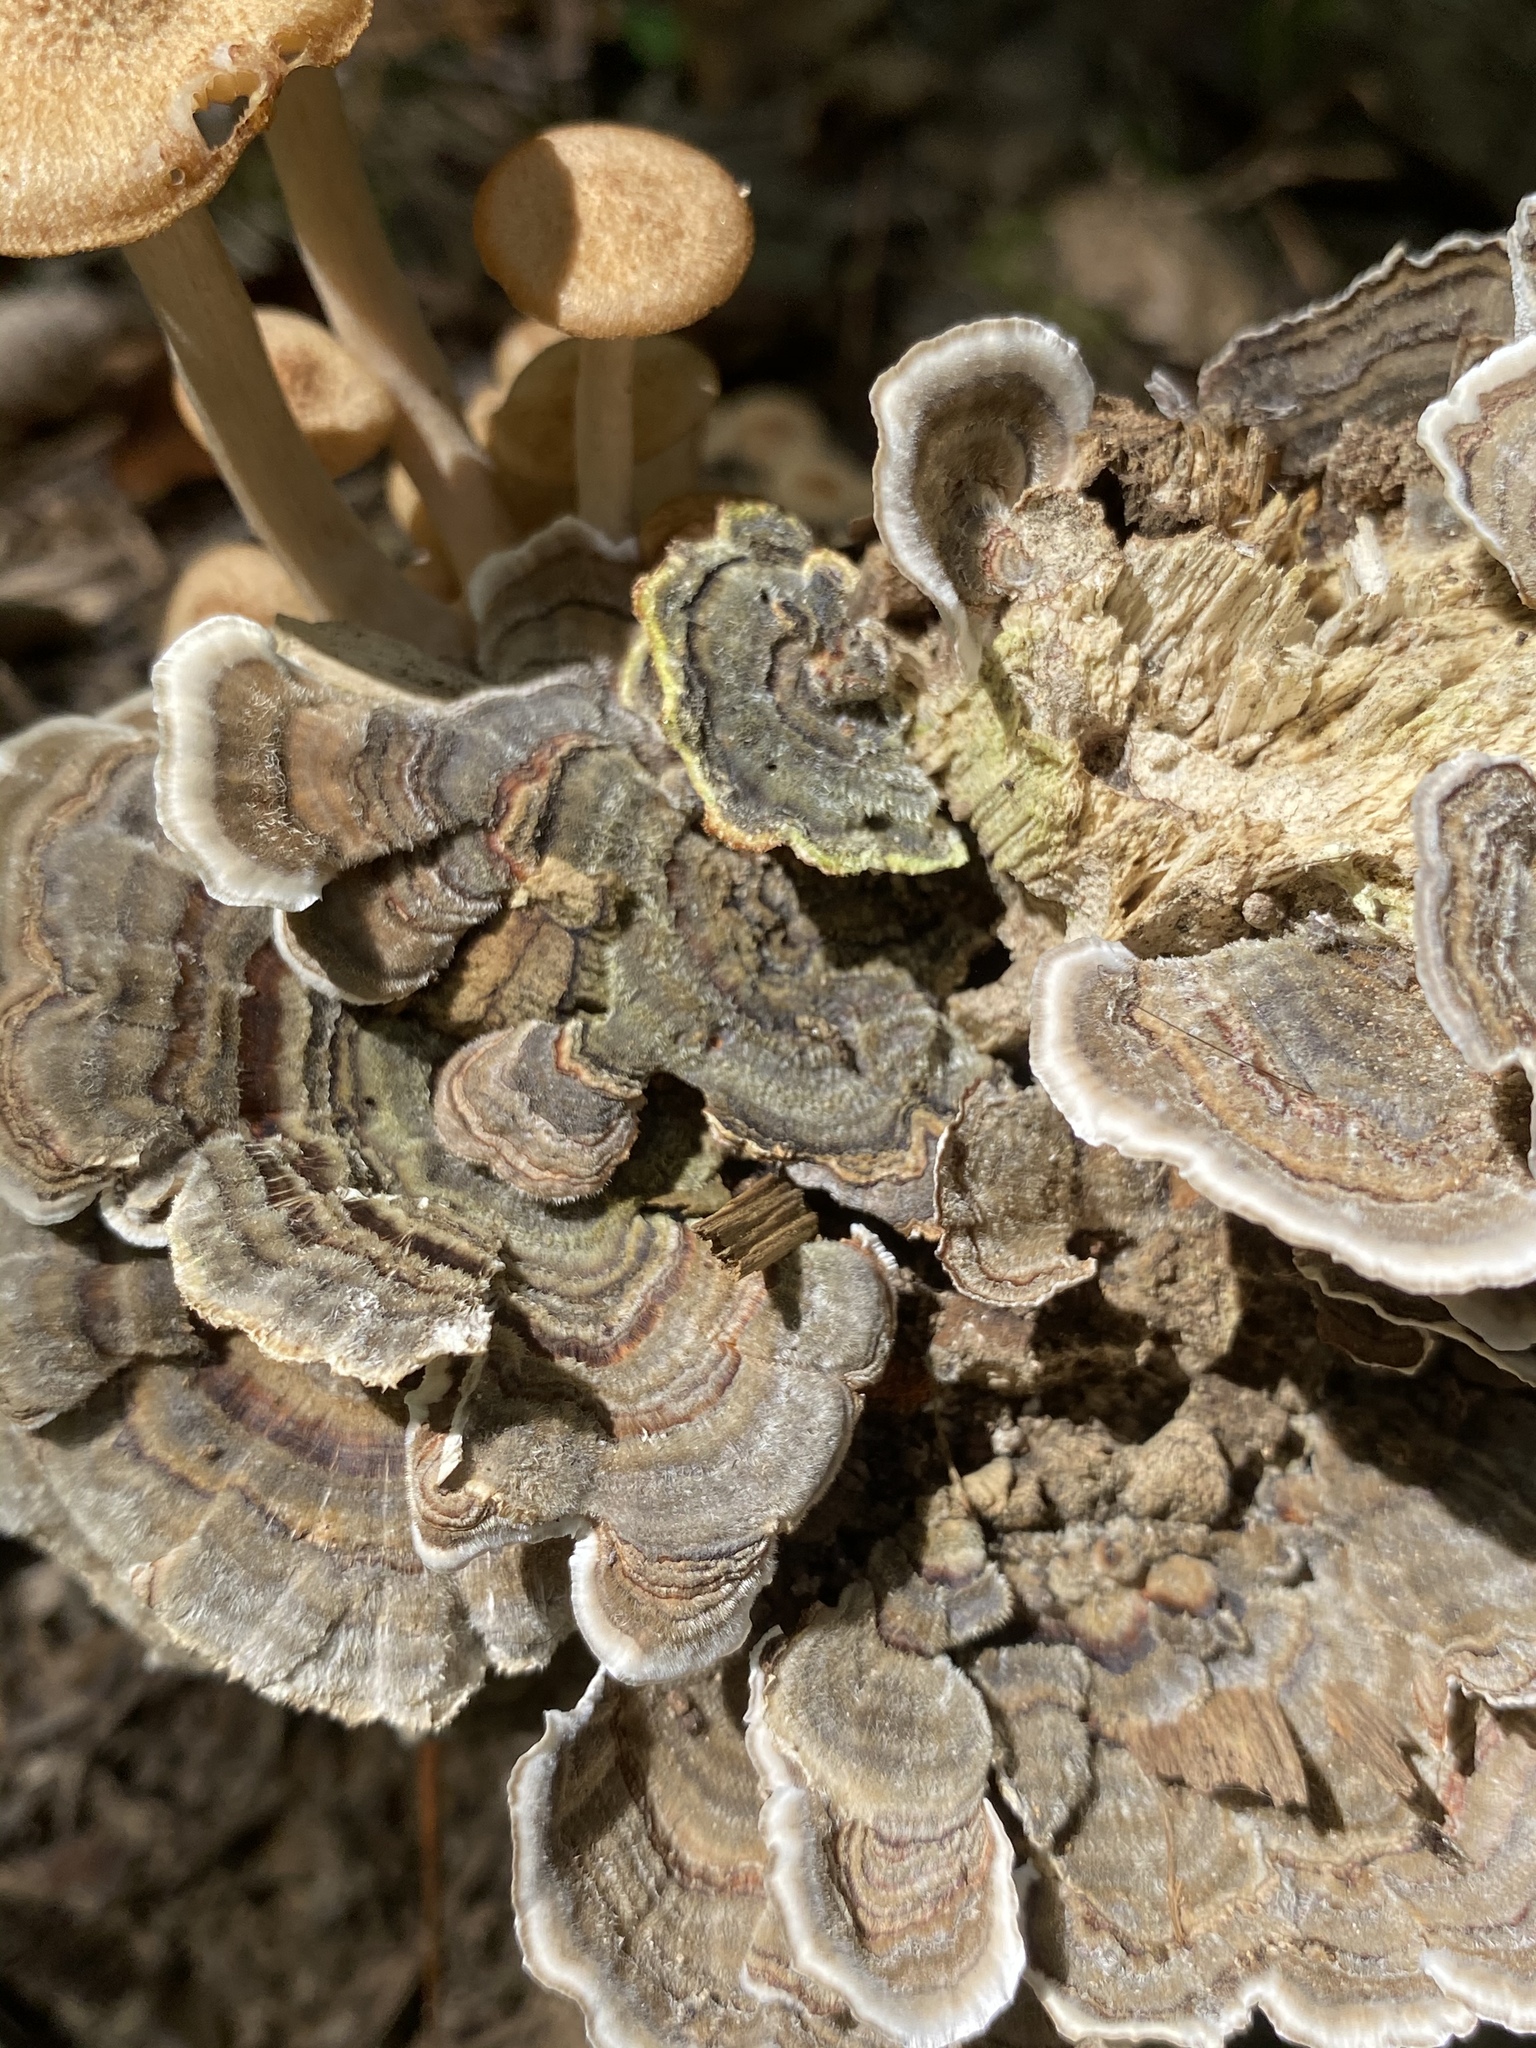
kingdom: Fungi
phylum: Basidiomycota
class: Agaricomycetes
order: Polyporales
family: Polyporaceae
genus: Trametes
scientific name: Trametes versicolor
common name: Turkeytail
